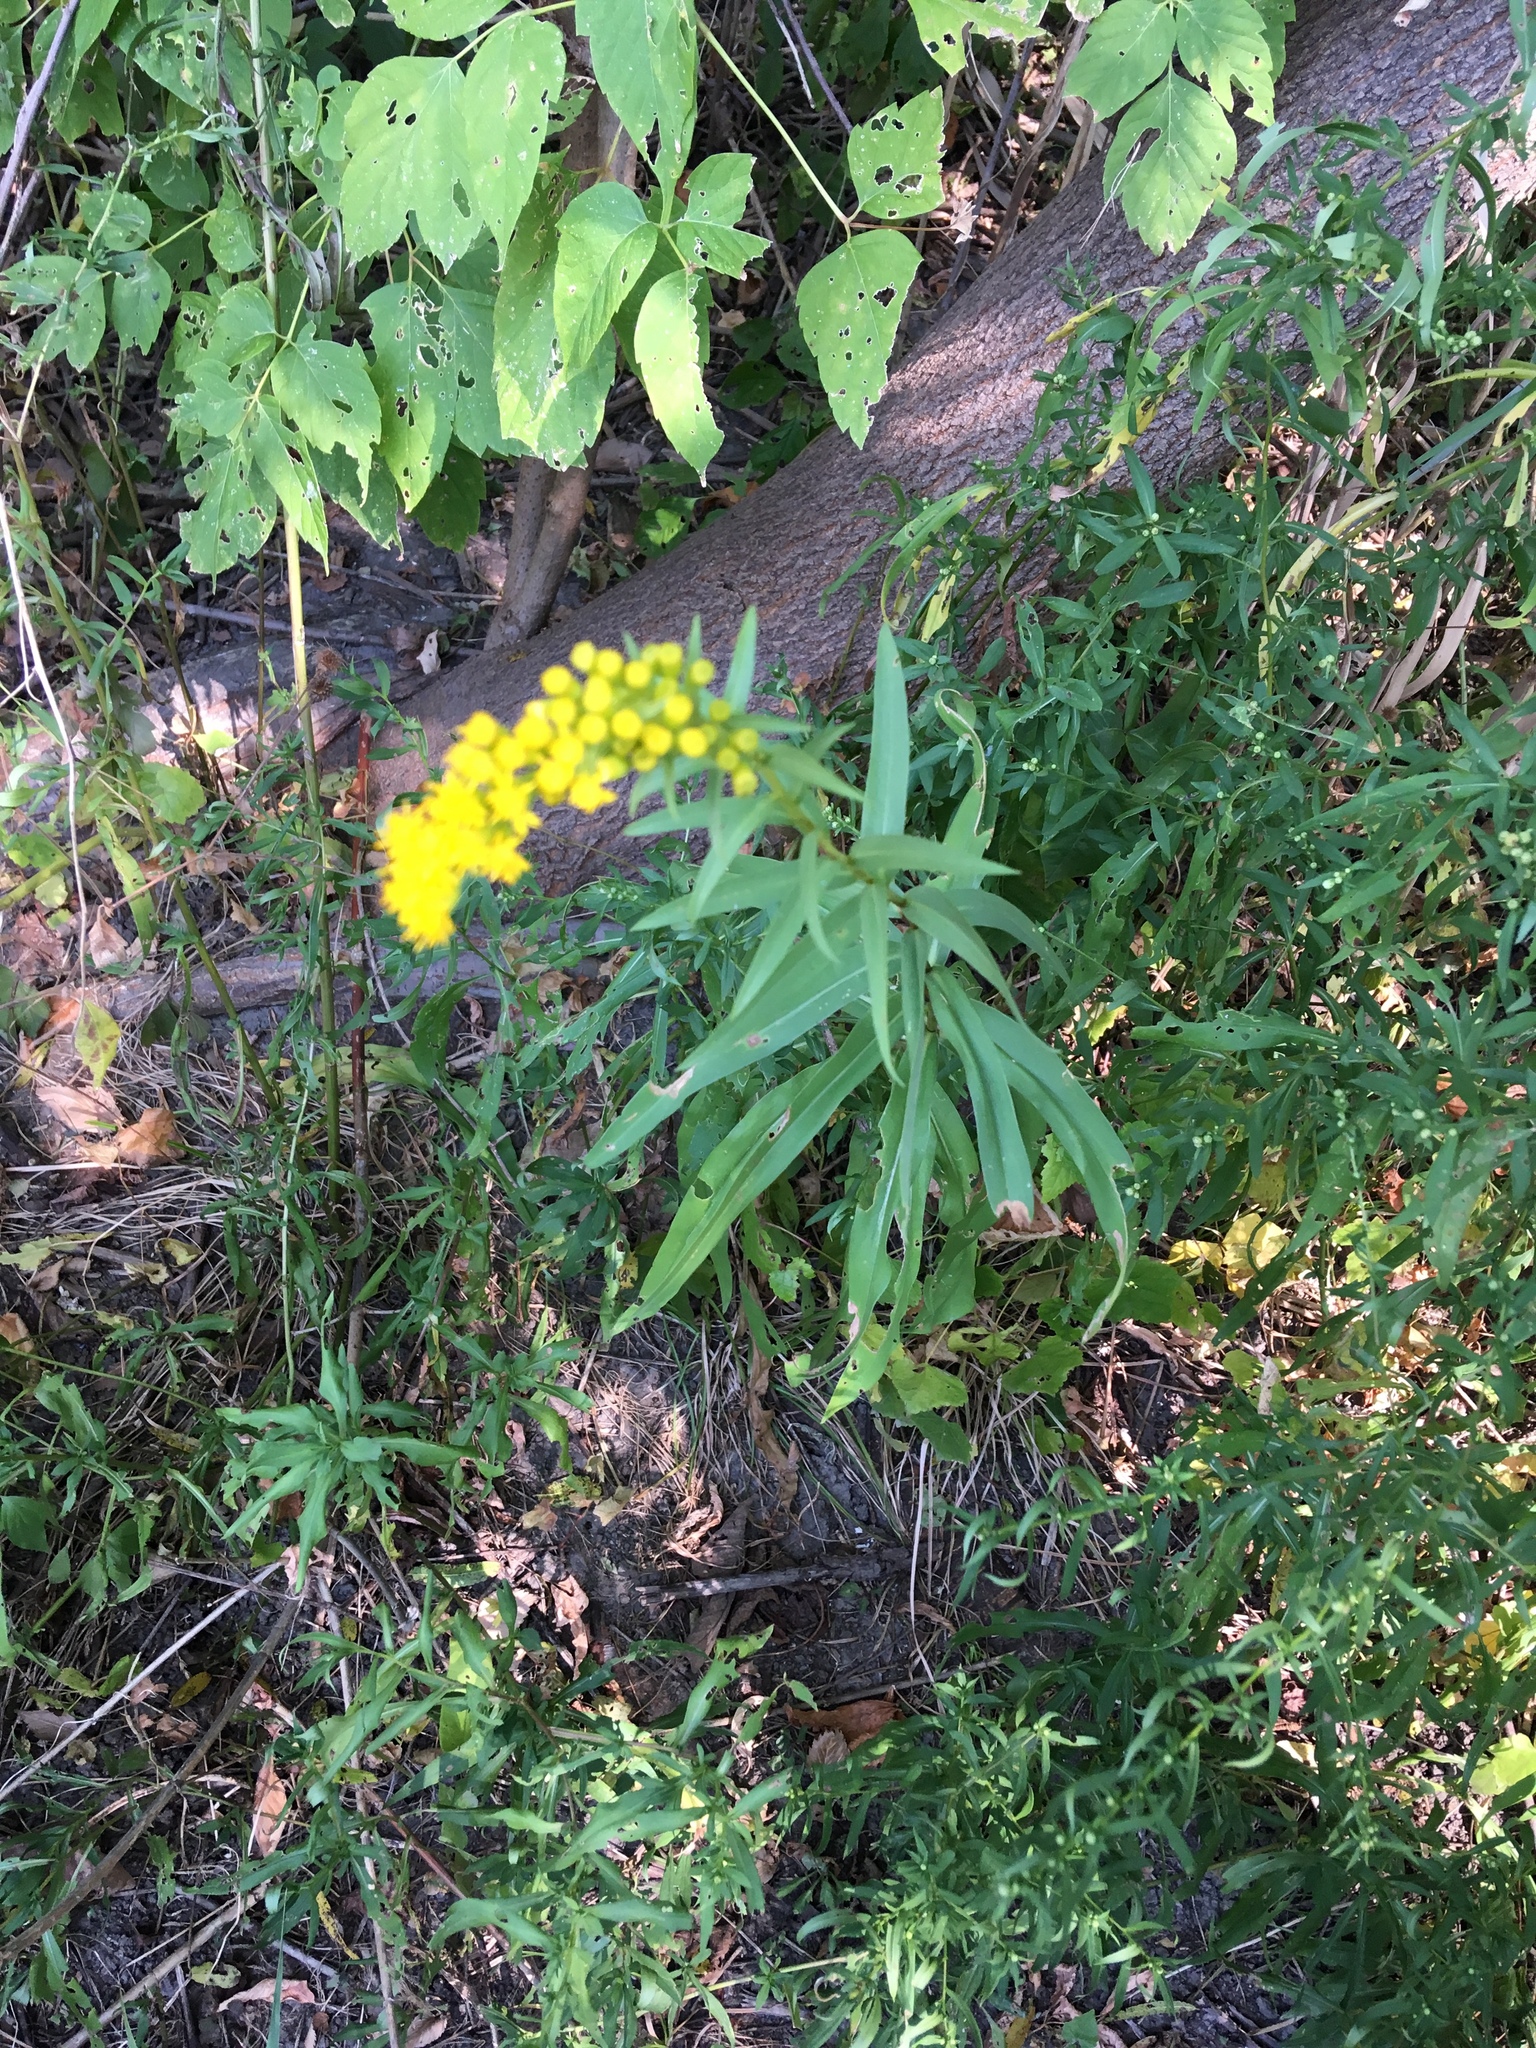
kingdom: Plantae
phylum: Tracheophyta
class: Magnoliopsida
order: Asterales
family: Asteraceae
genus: Solidago
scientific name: Solidago sempervirens
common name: Salt-marsh goldenrod
